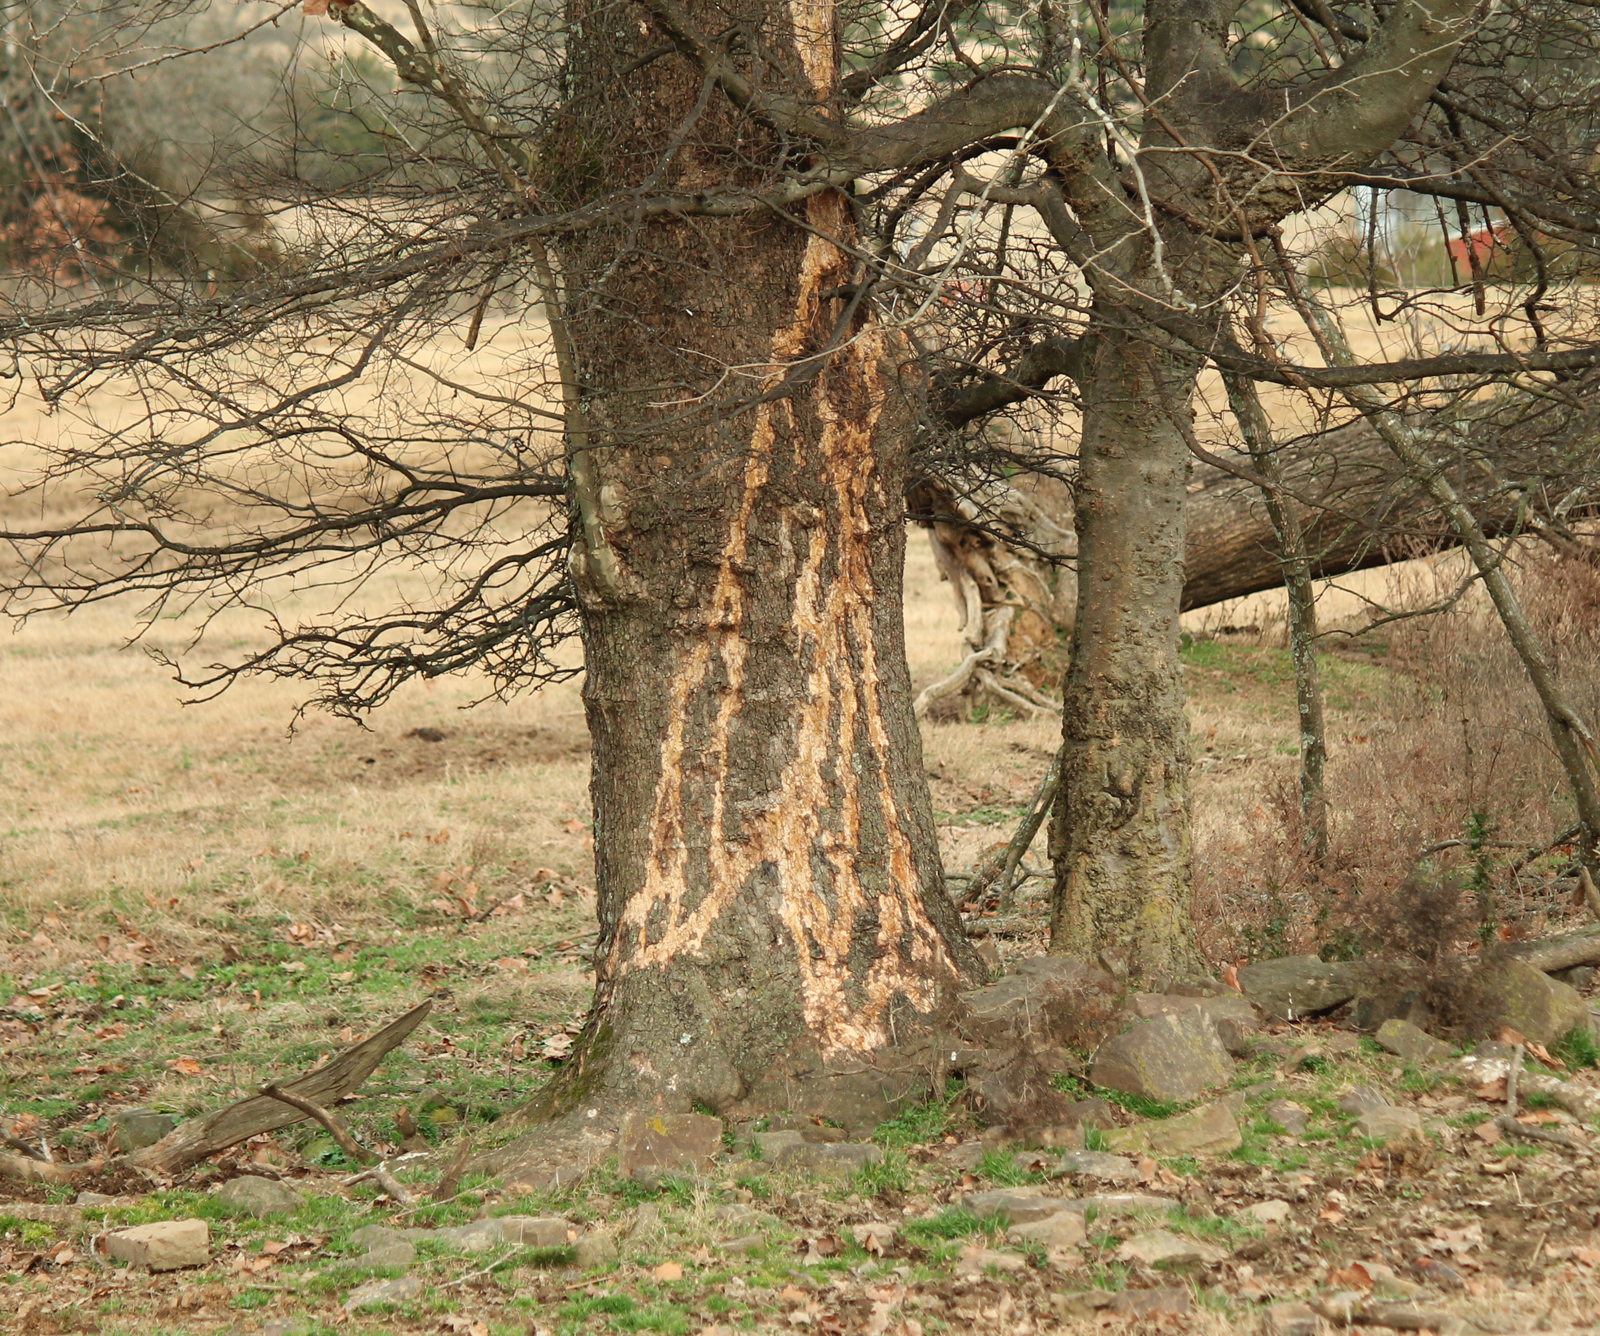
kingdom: Plantae
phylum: Tracheophyta
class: Magnoliopsida
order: Proteales
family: Platanaceae
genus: Platanus
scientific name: Platanus occidentalis
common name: American sycamore
